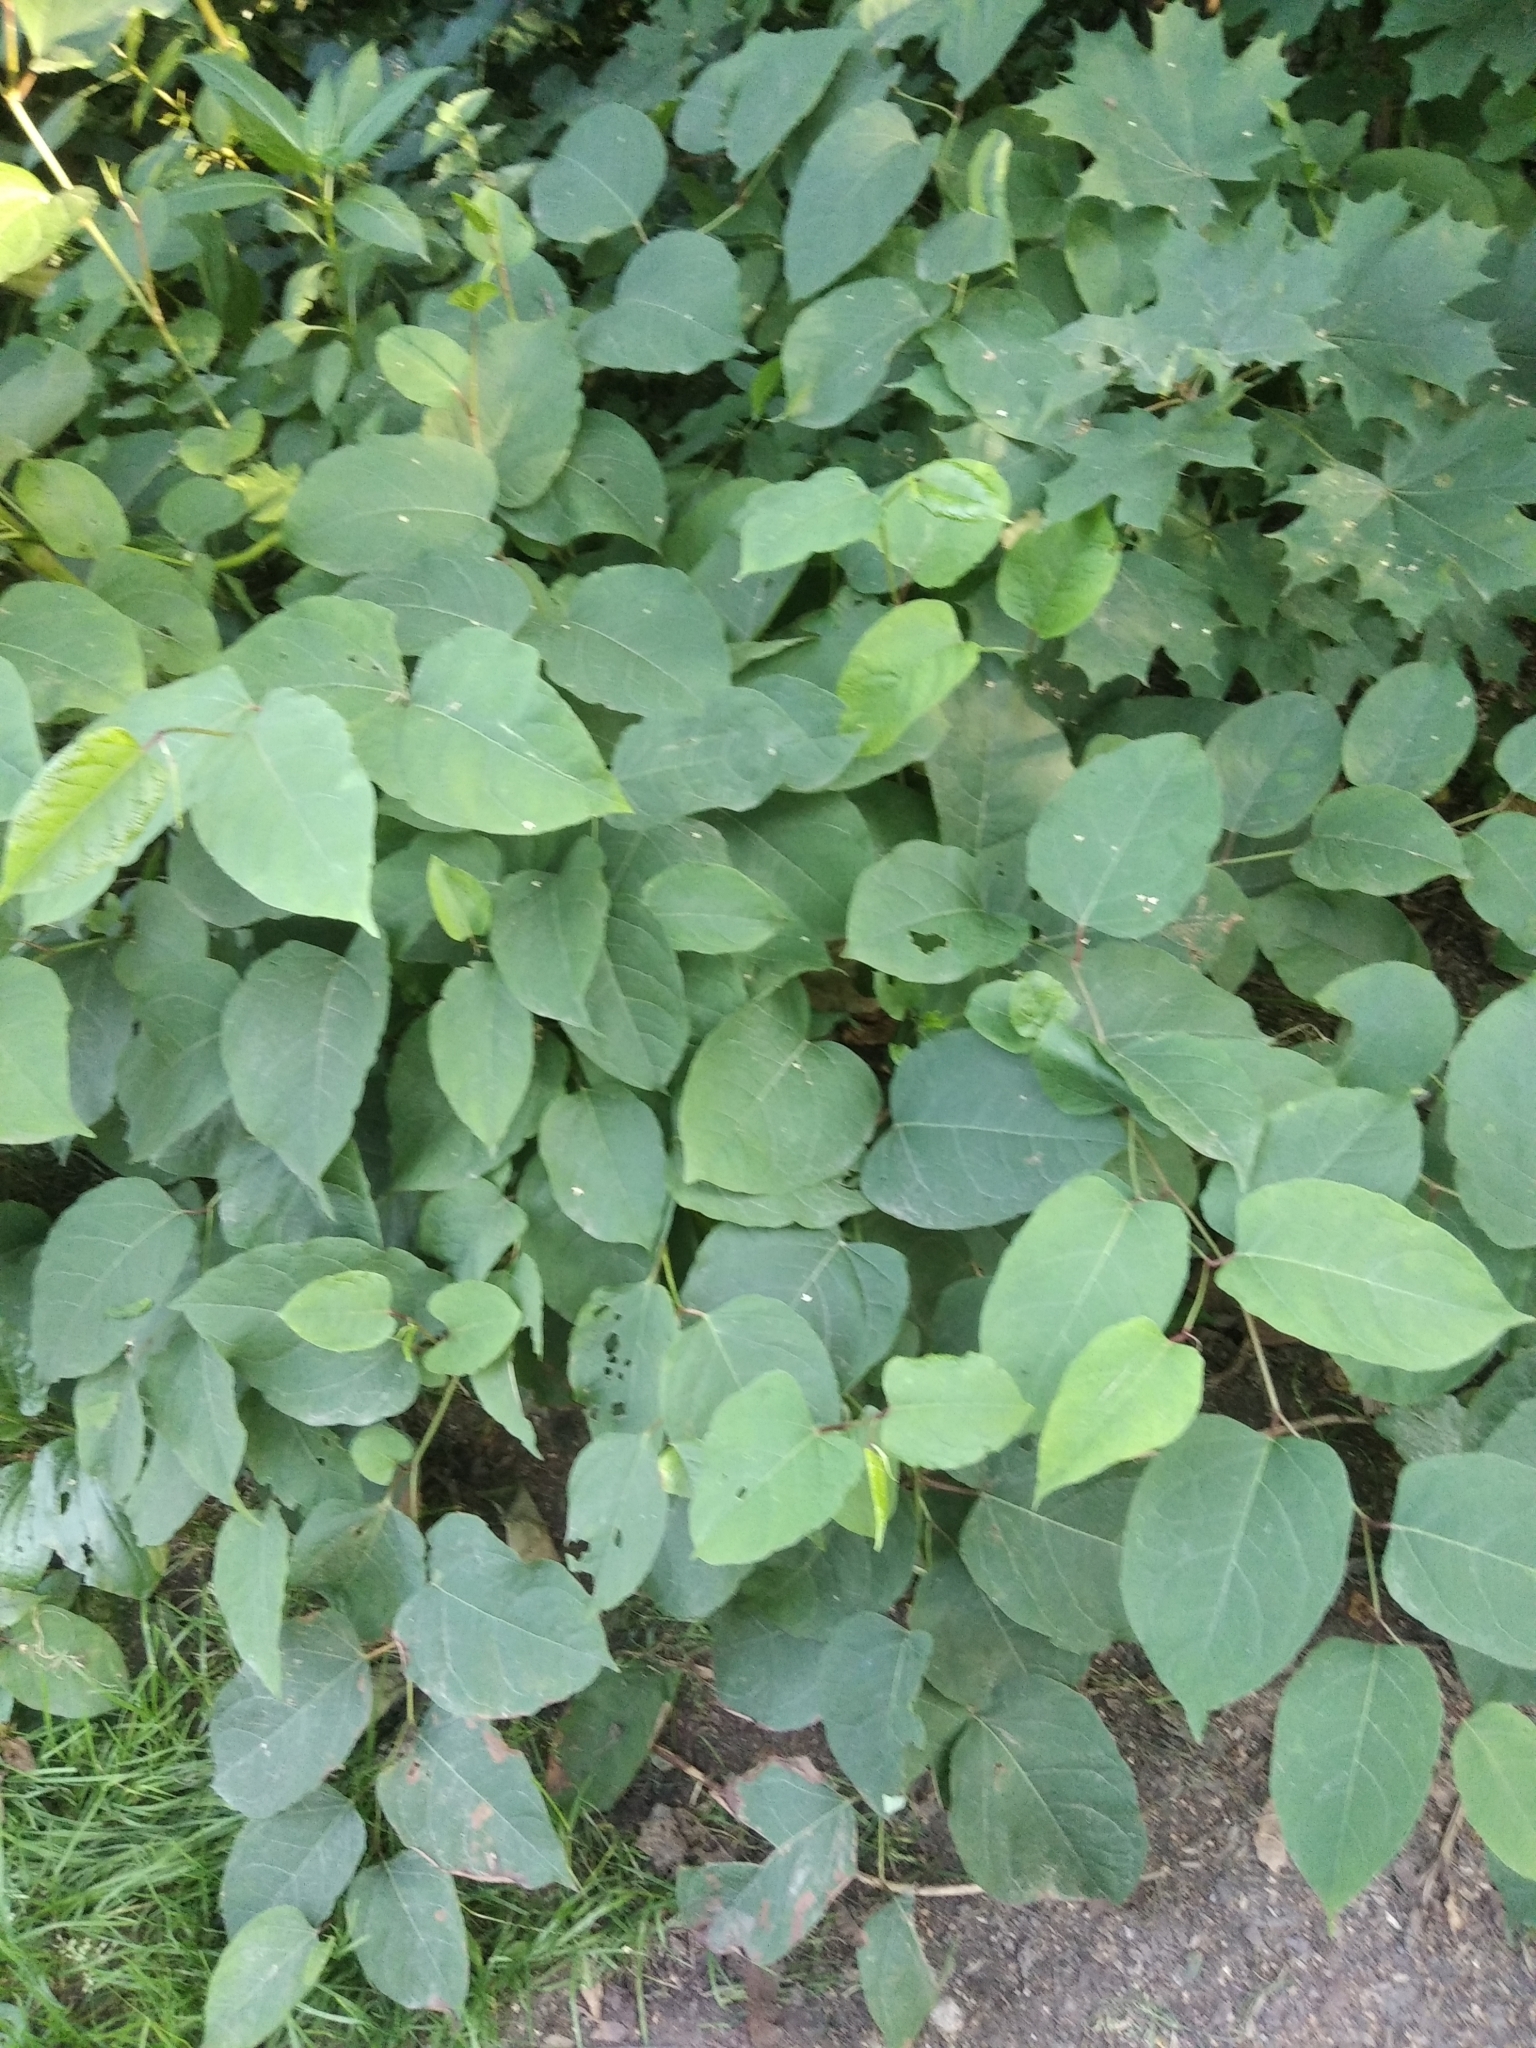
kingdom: Plantae
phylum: Tracheophyta
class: Magnoliopsida
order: Caryophyllales
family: Polygonaceae
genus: Reynoutria
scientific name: Reynoutria sachalinensis
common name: Giant knotweed
